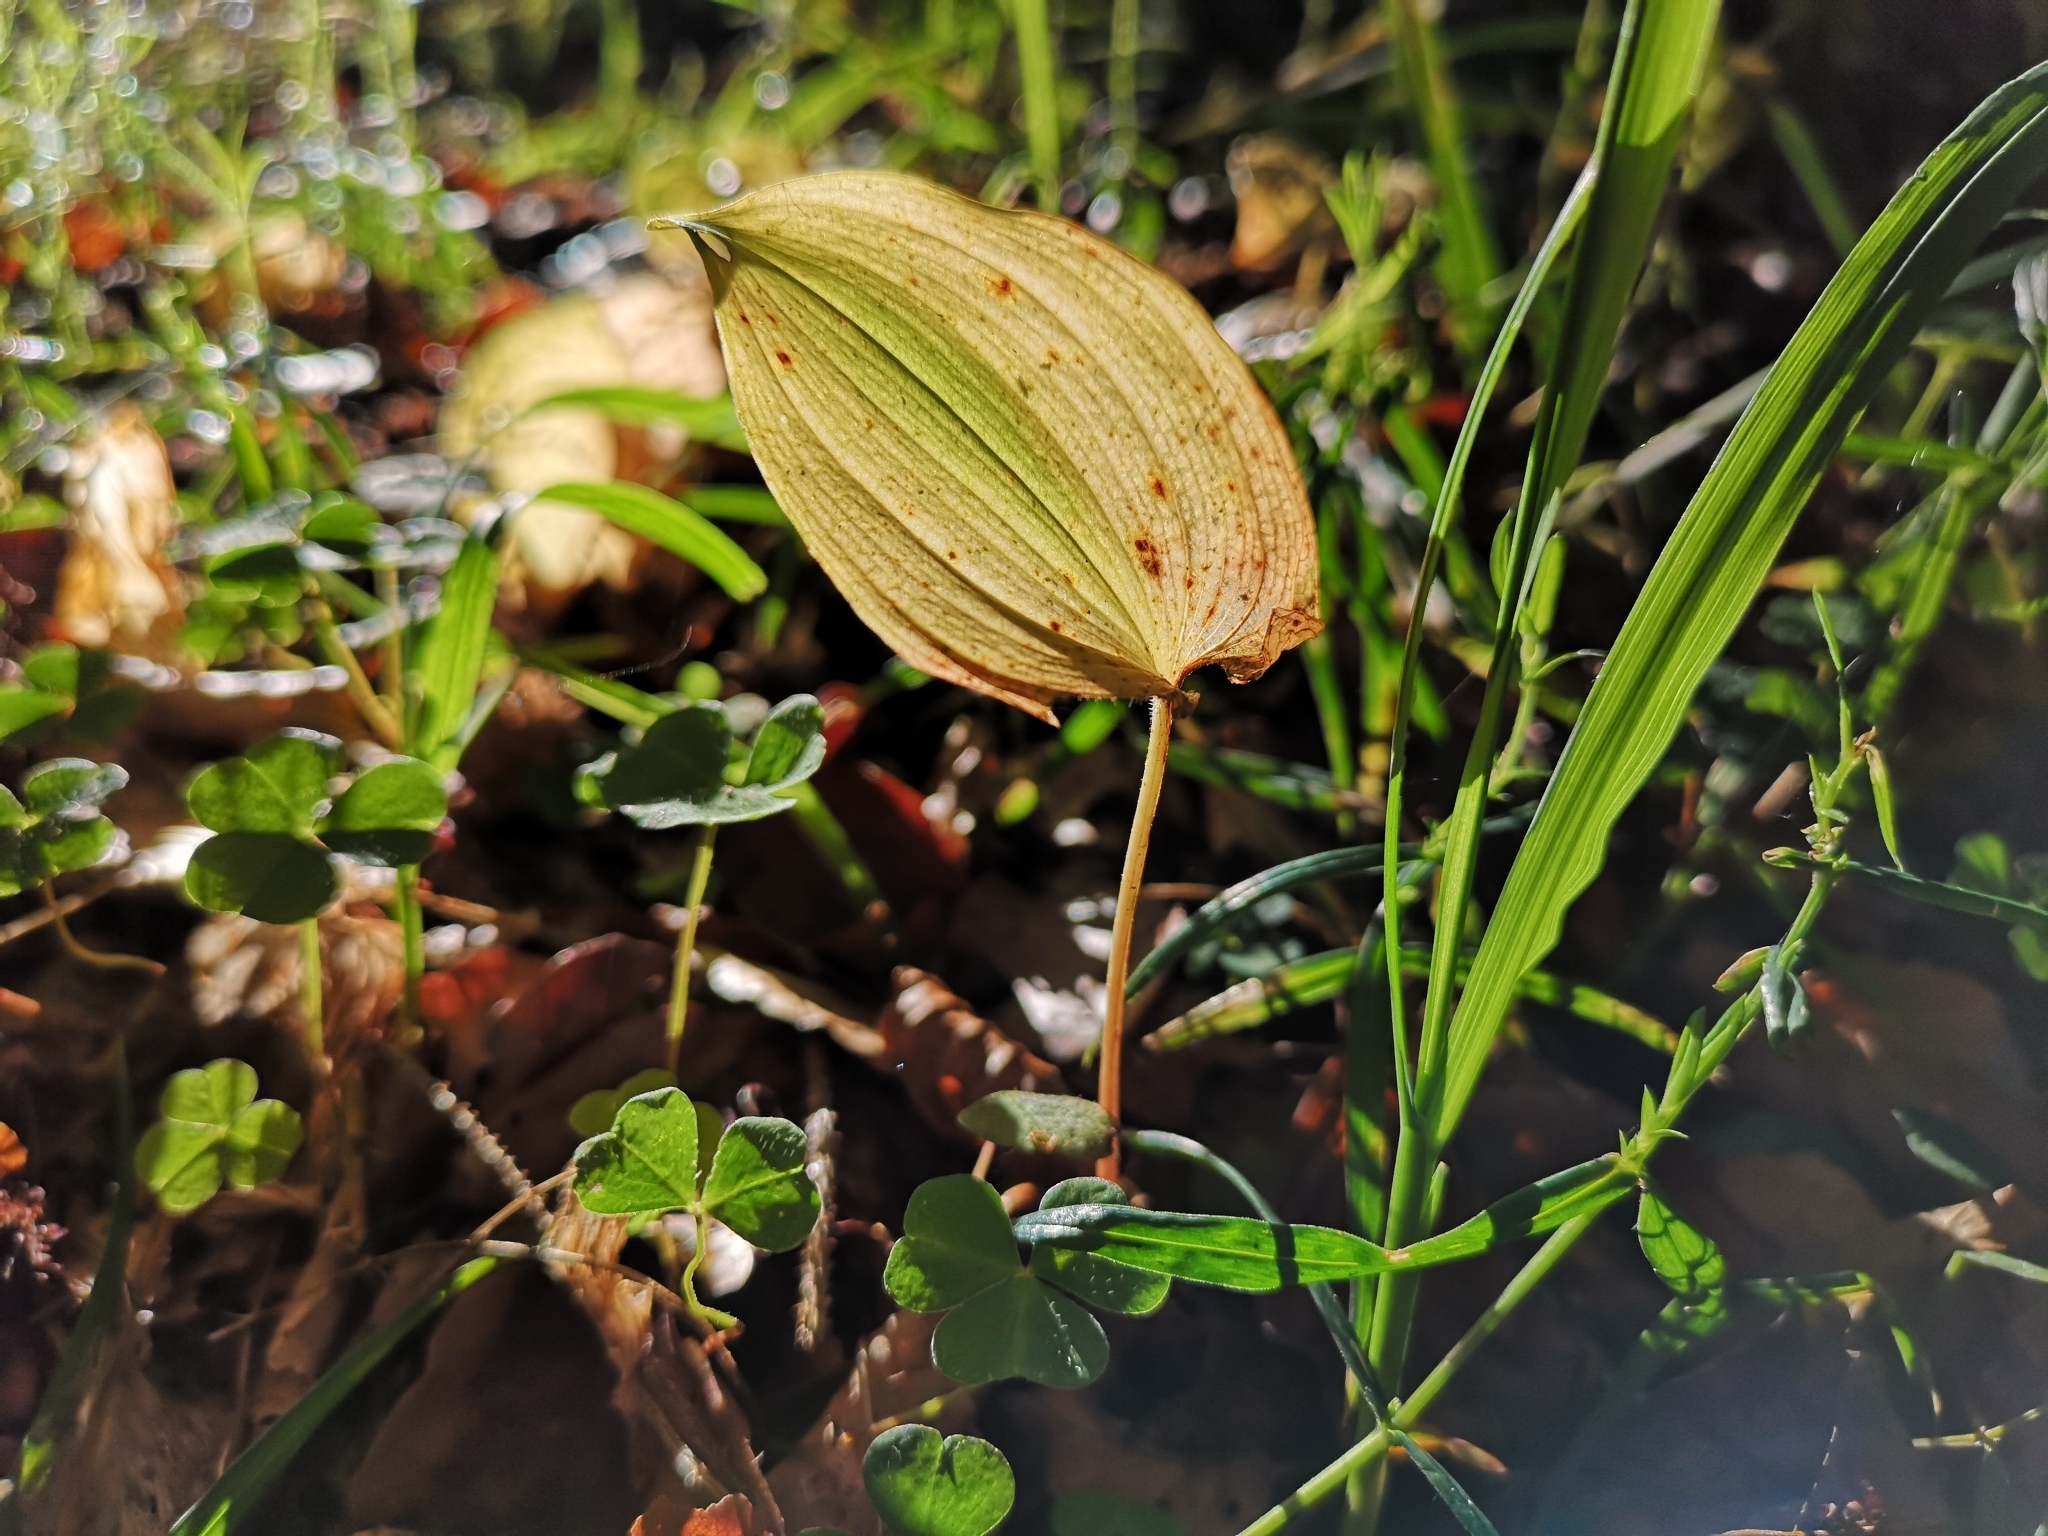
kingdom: Plantae
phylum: Tracheophyta
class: Liliopsida
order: Asparagales
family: Asparagaceae
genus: Maianthemum
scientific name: Maianthemum bifolium
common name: May lily
